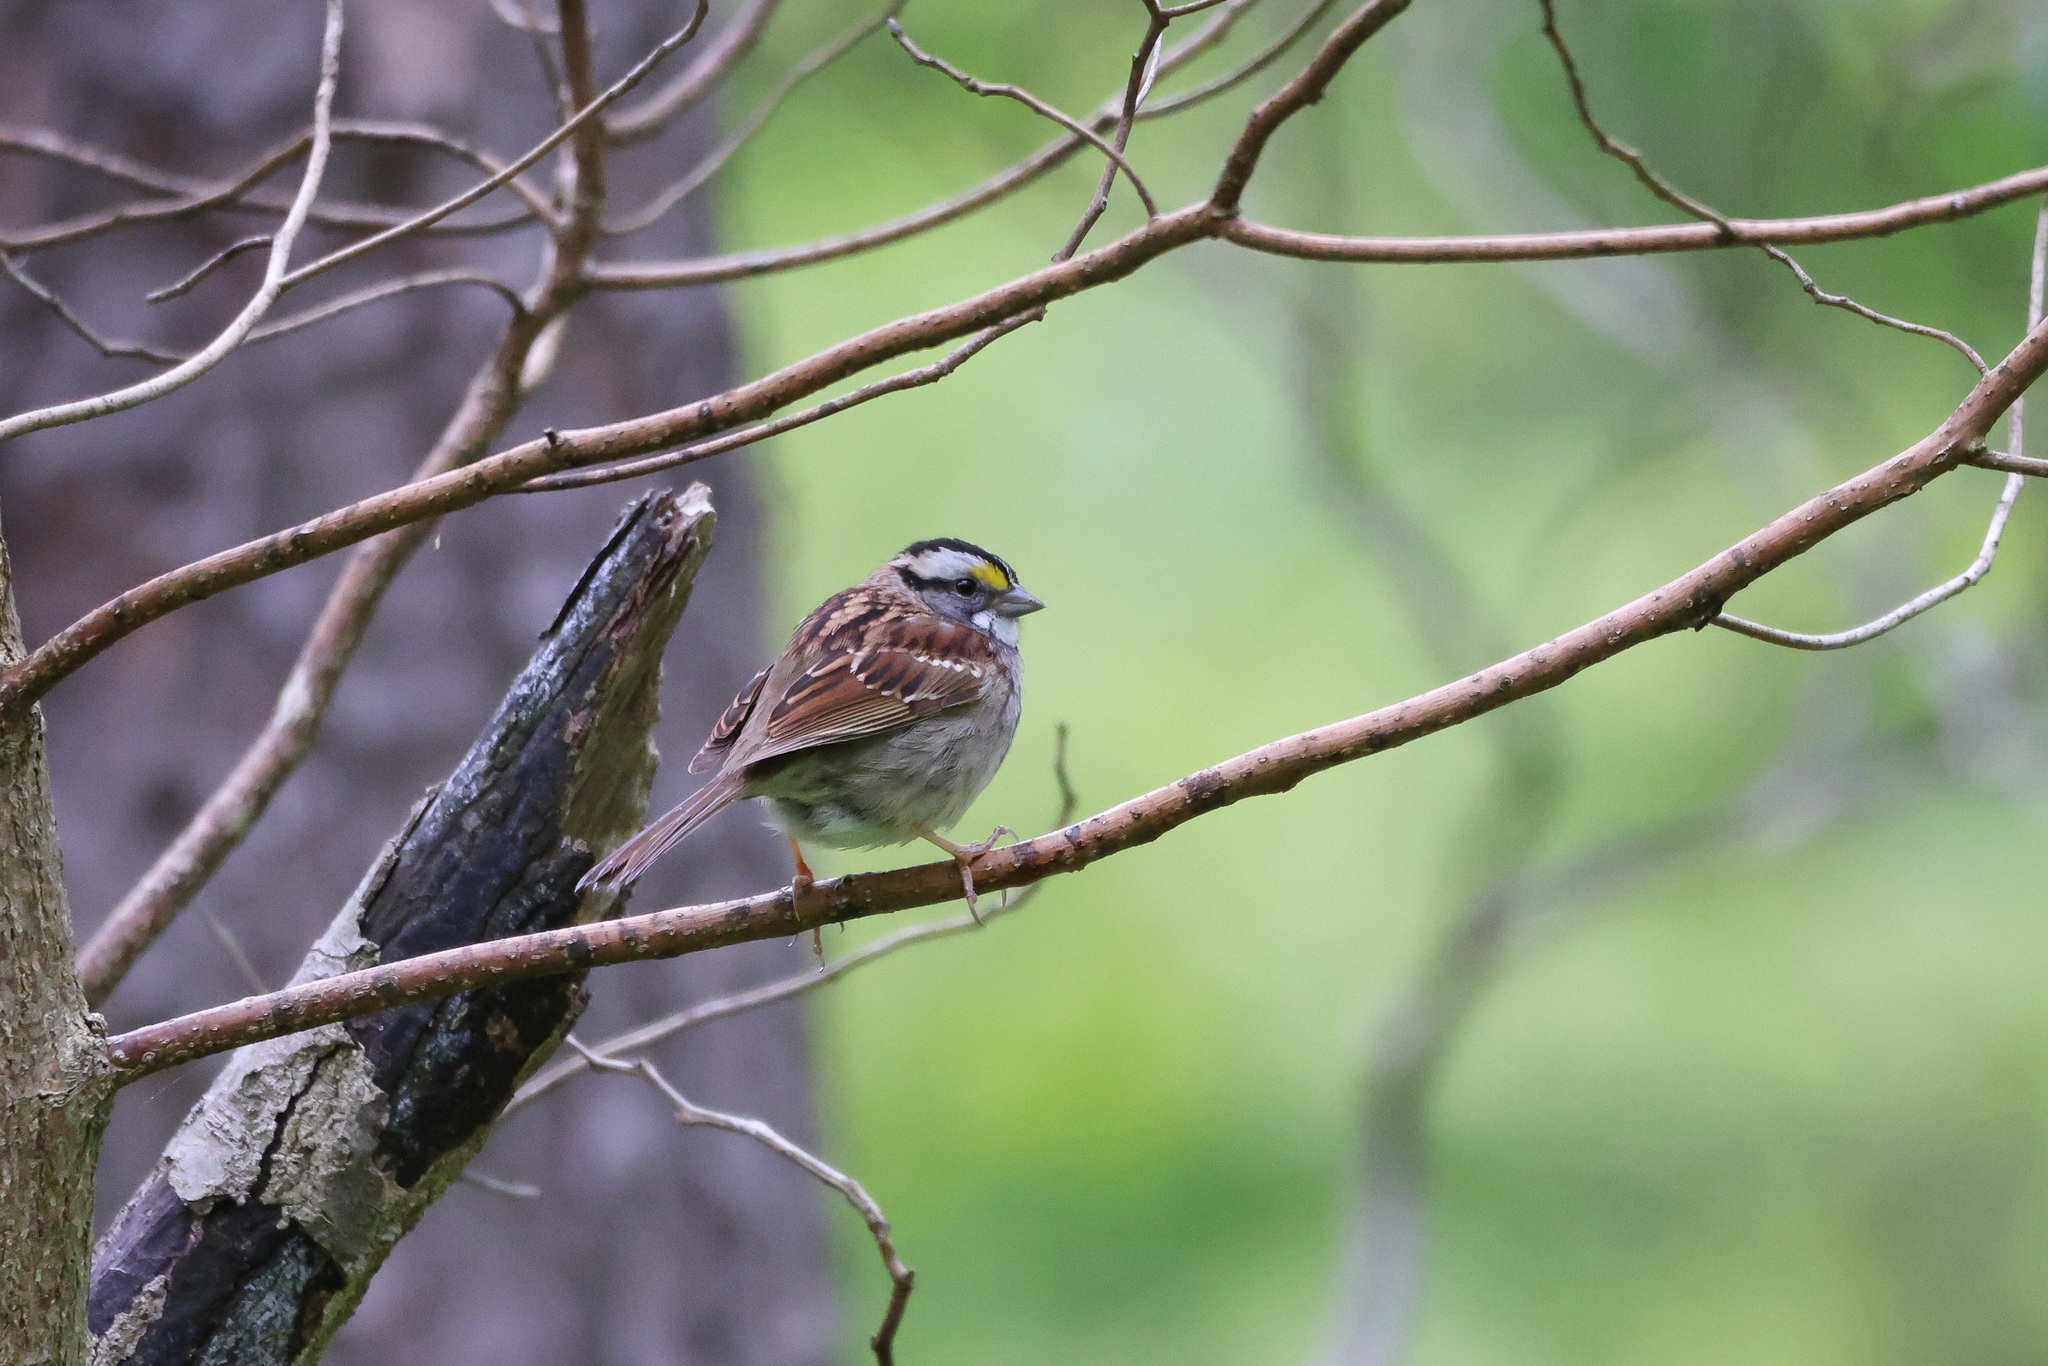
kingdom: Animalia
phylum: Chordata
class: Aves
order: Passeriformes
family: Passerellidae
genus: Zonotrichia
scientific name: Zonotrichia albicollis
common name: White-throated sparrow
